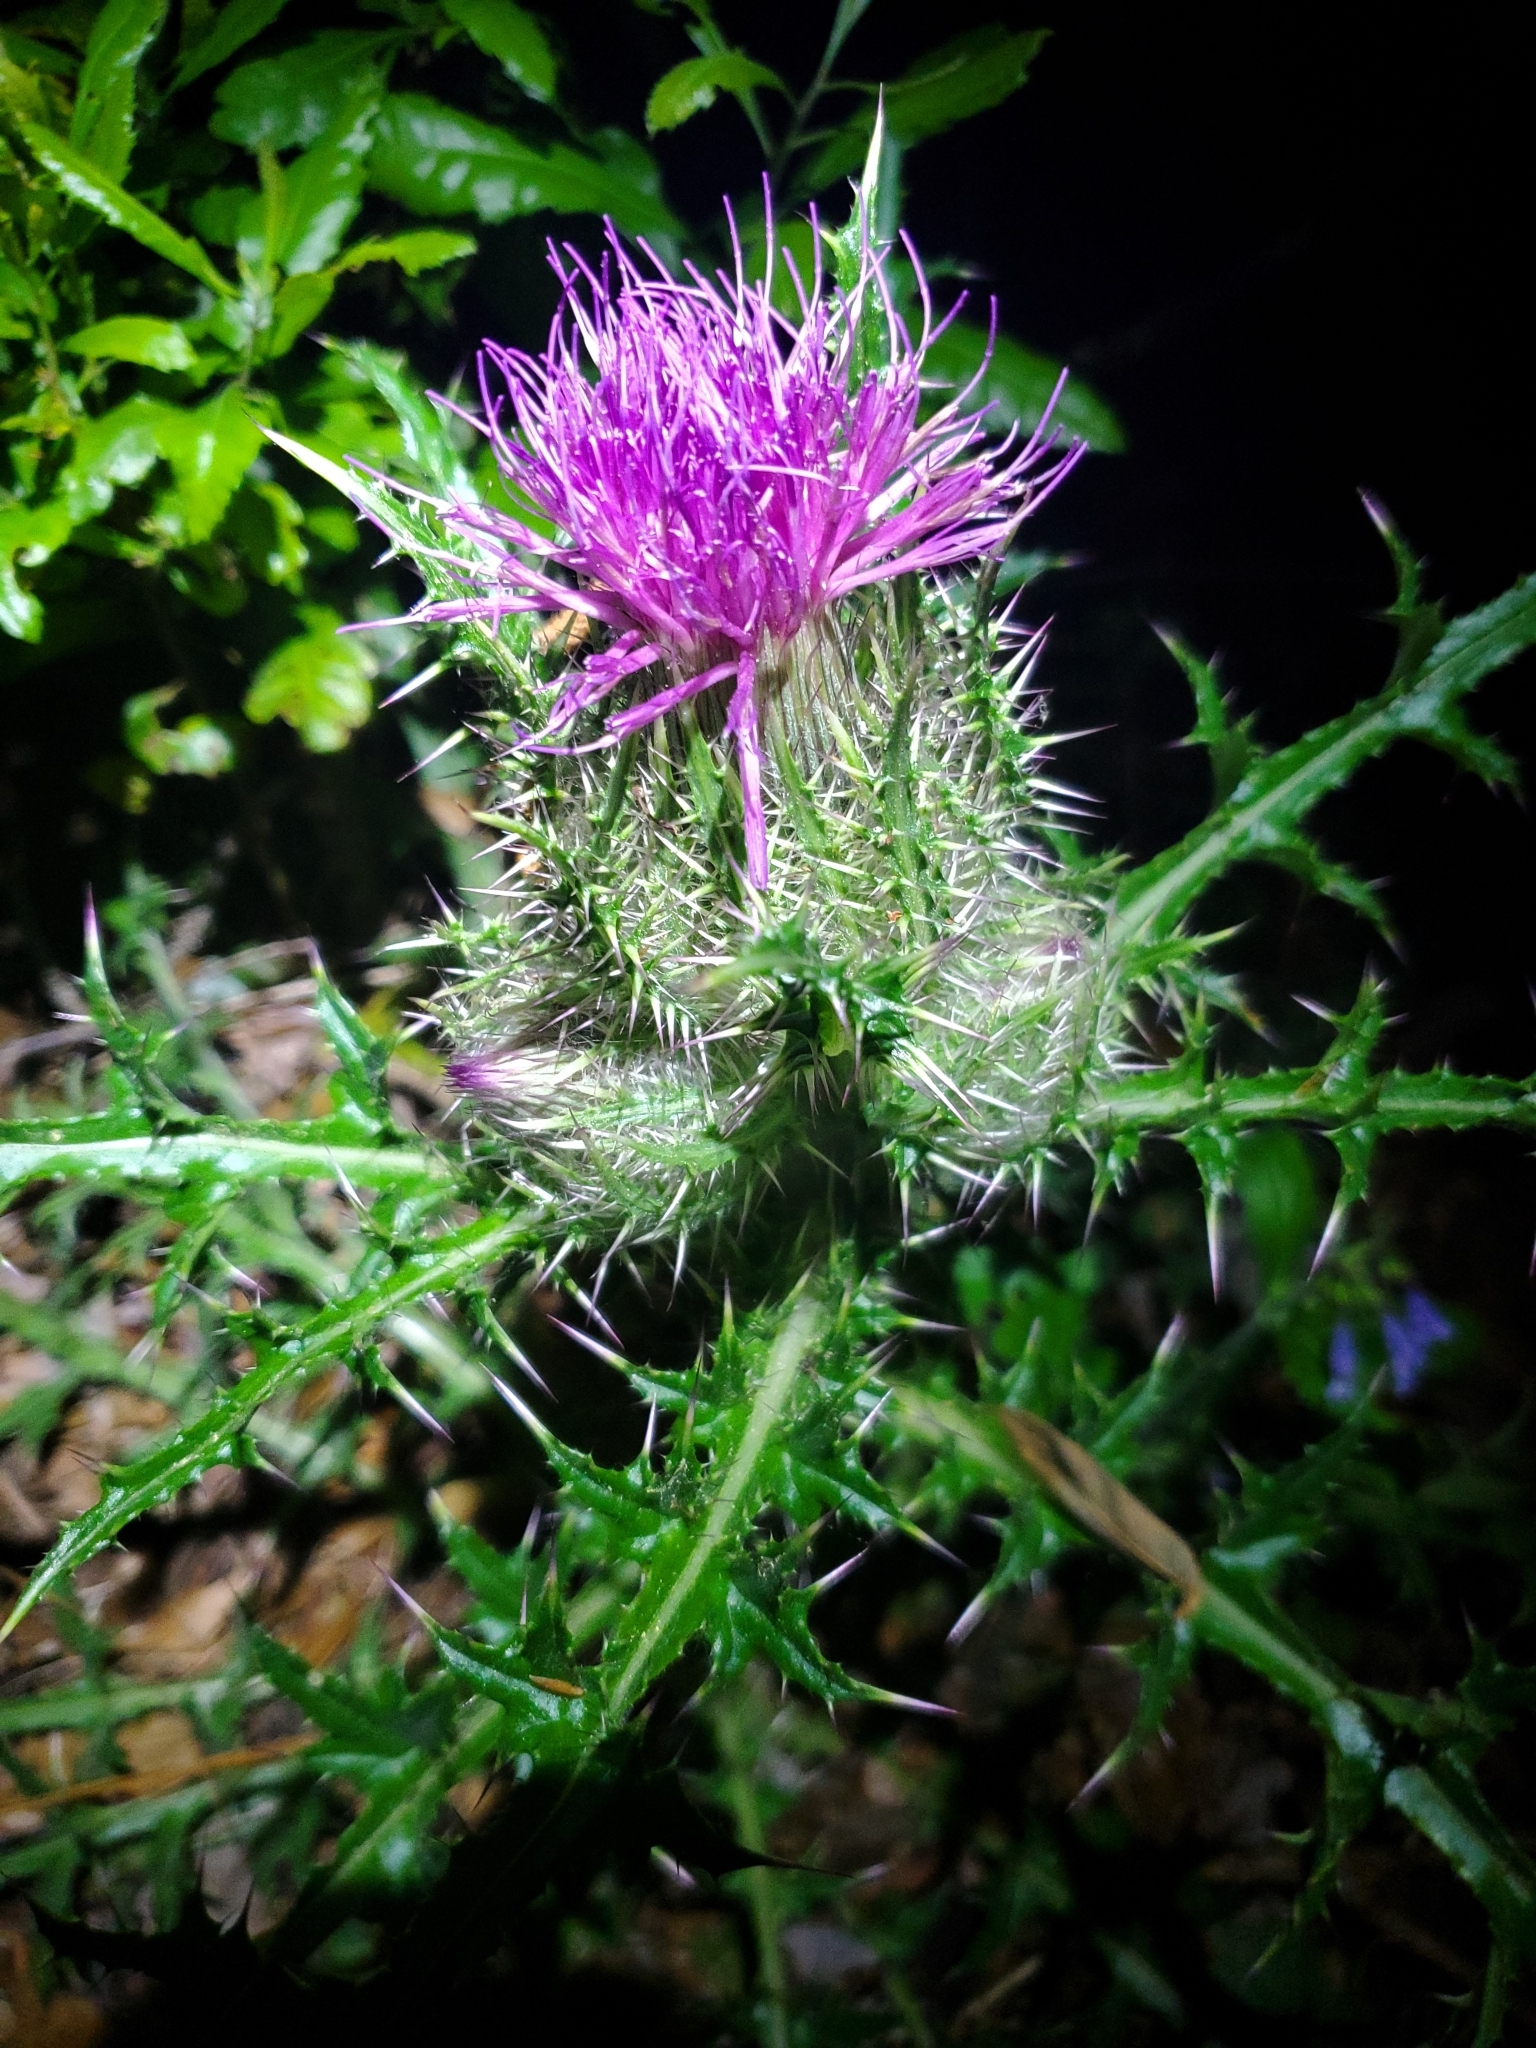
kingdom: Plantae
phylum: Tracheophyta
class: Magnoliopsida
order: Asterales
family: Asteraceae
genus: Cirsium
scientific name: Cirsium horridulum
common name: Bristly thistle
